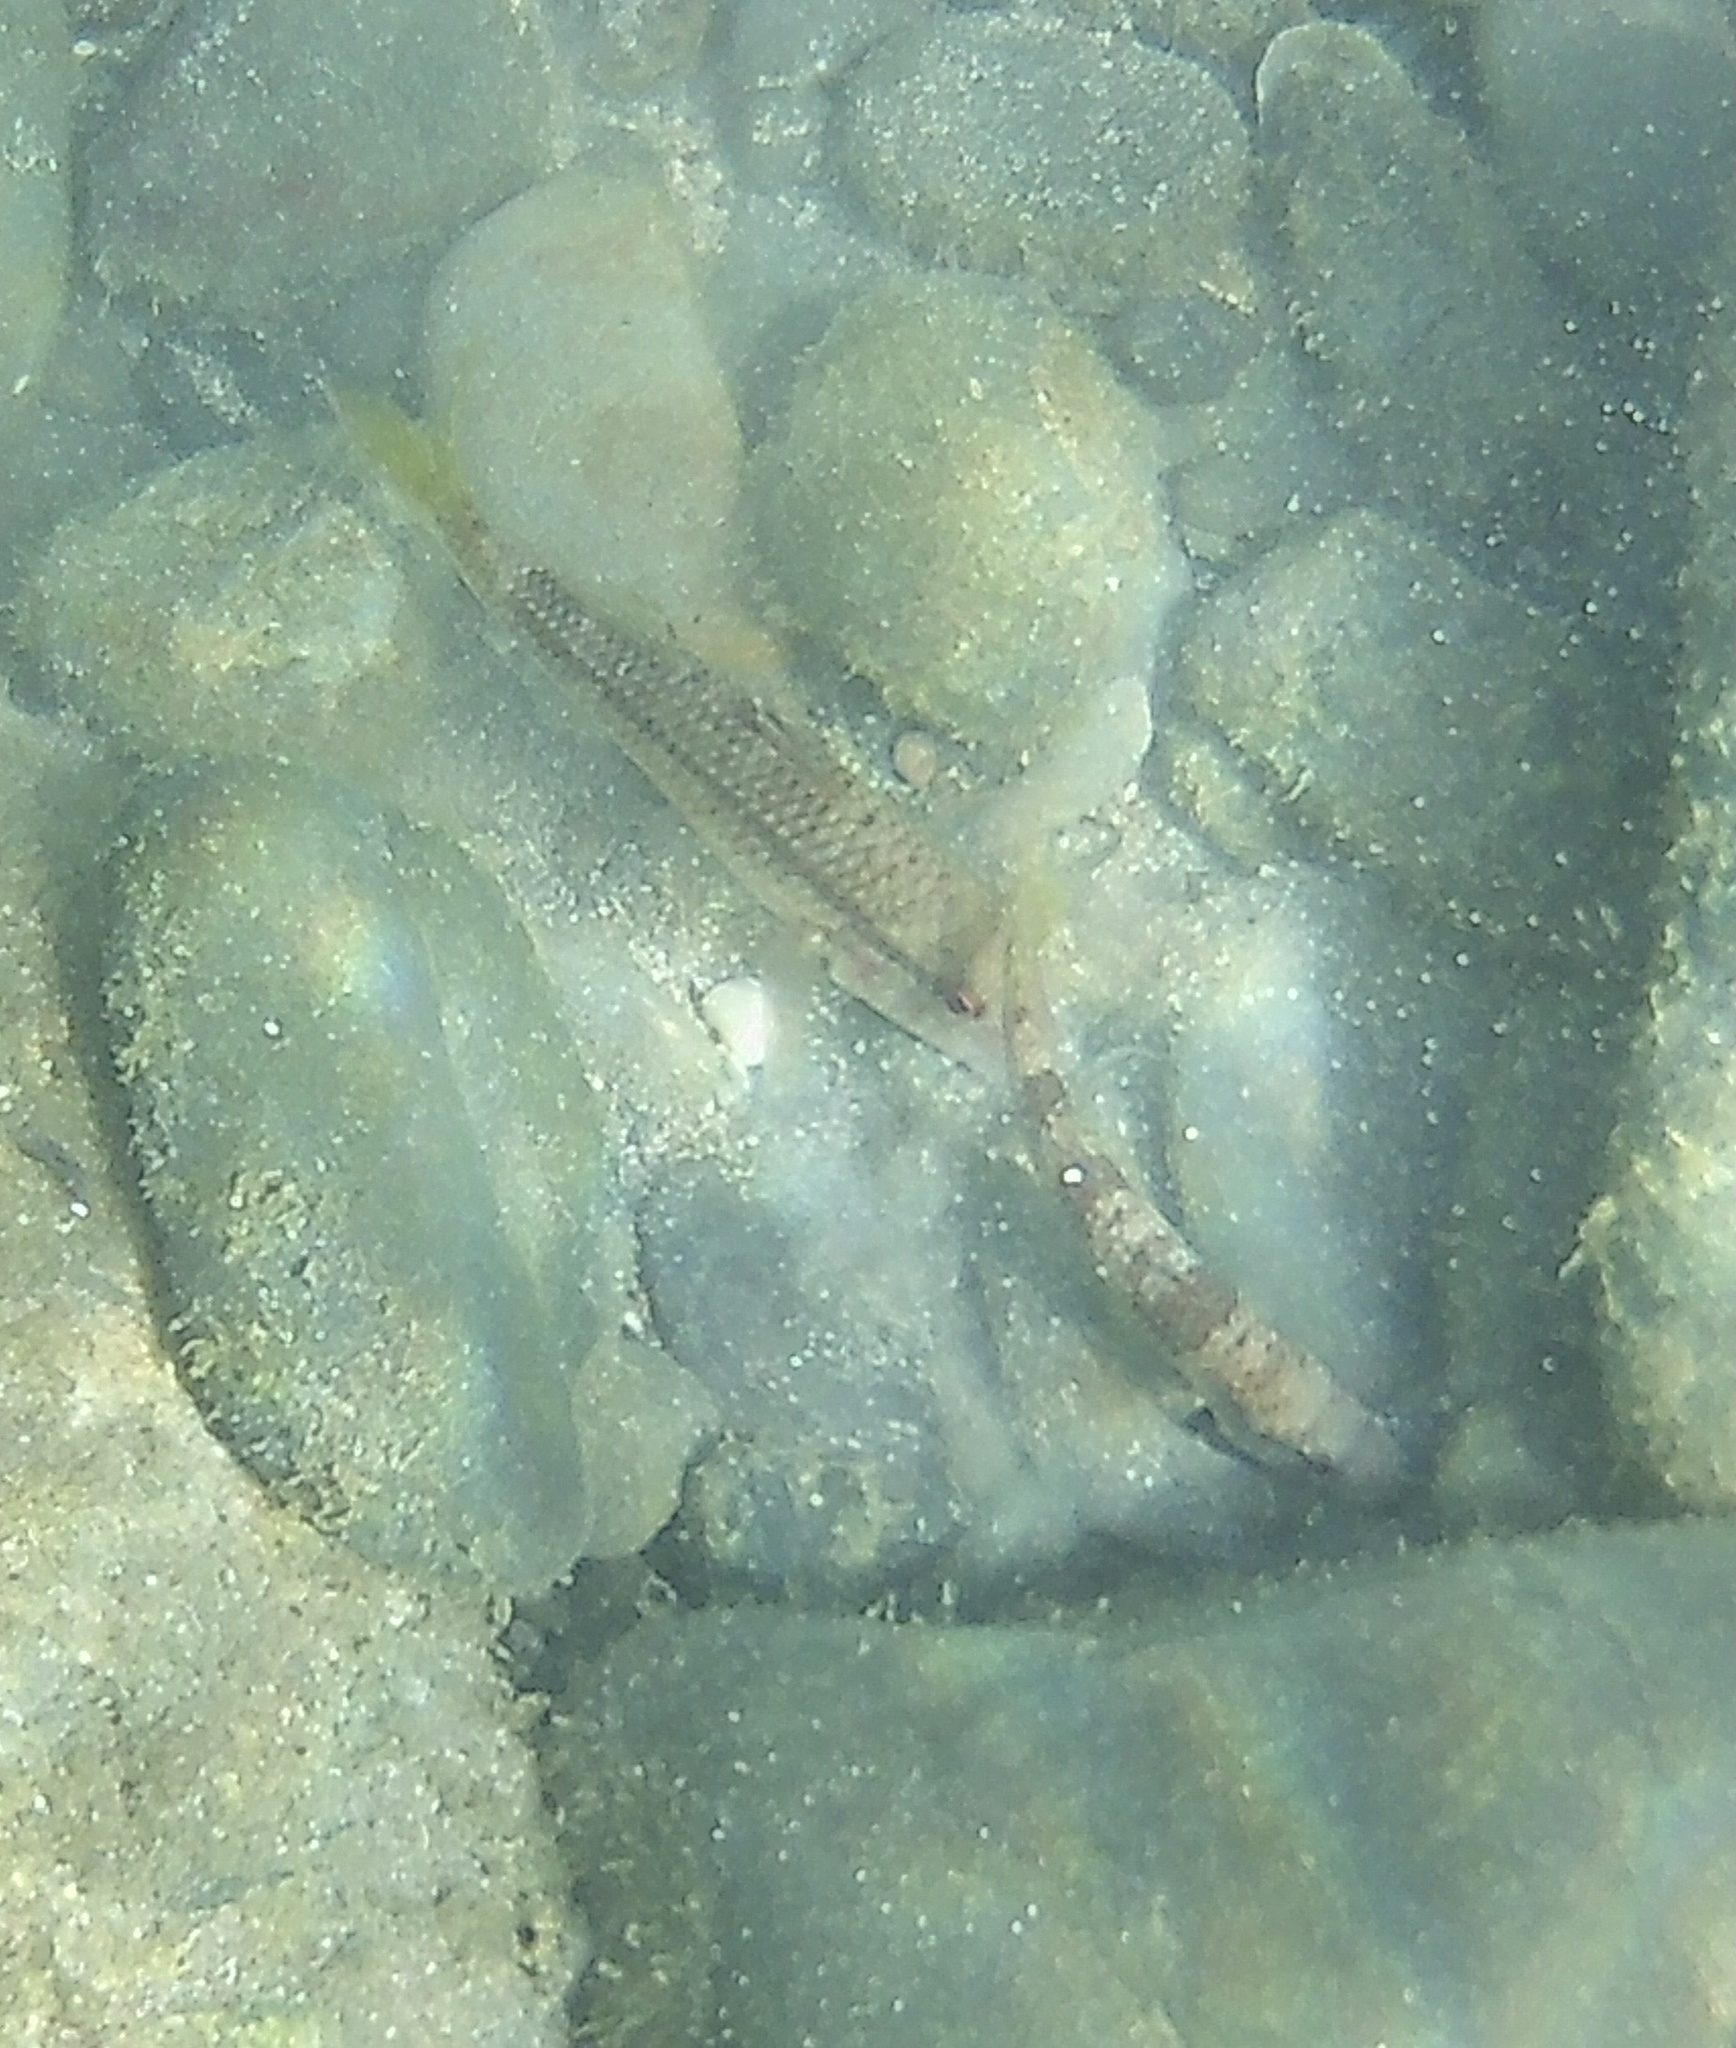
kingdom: Animalia
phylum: Chordata
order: Perciformes
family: Mullidae
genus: Mullus
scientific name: Mullus surmuletus
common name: Red mullet
